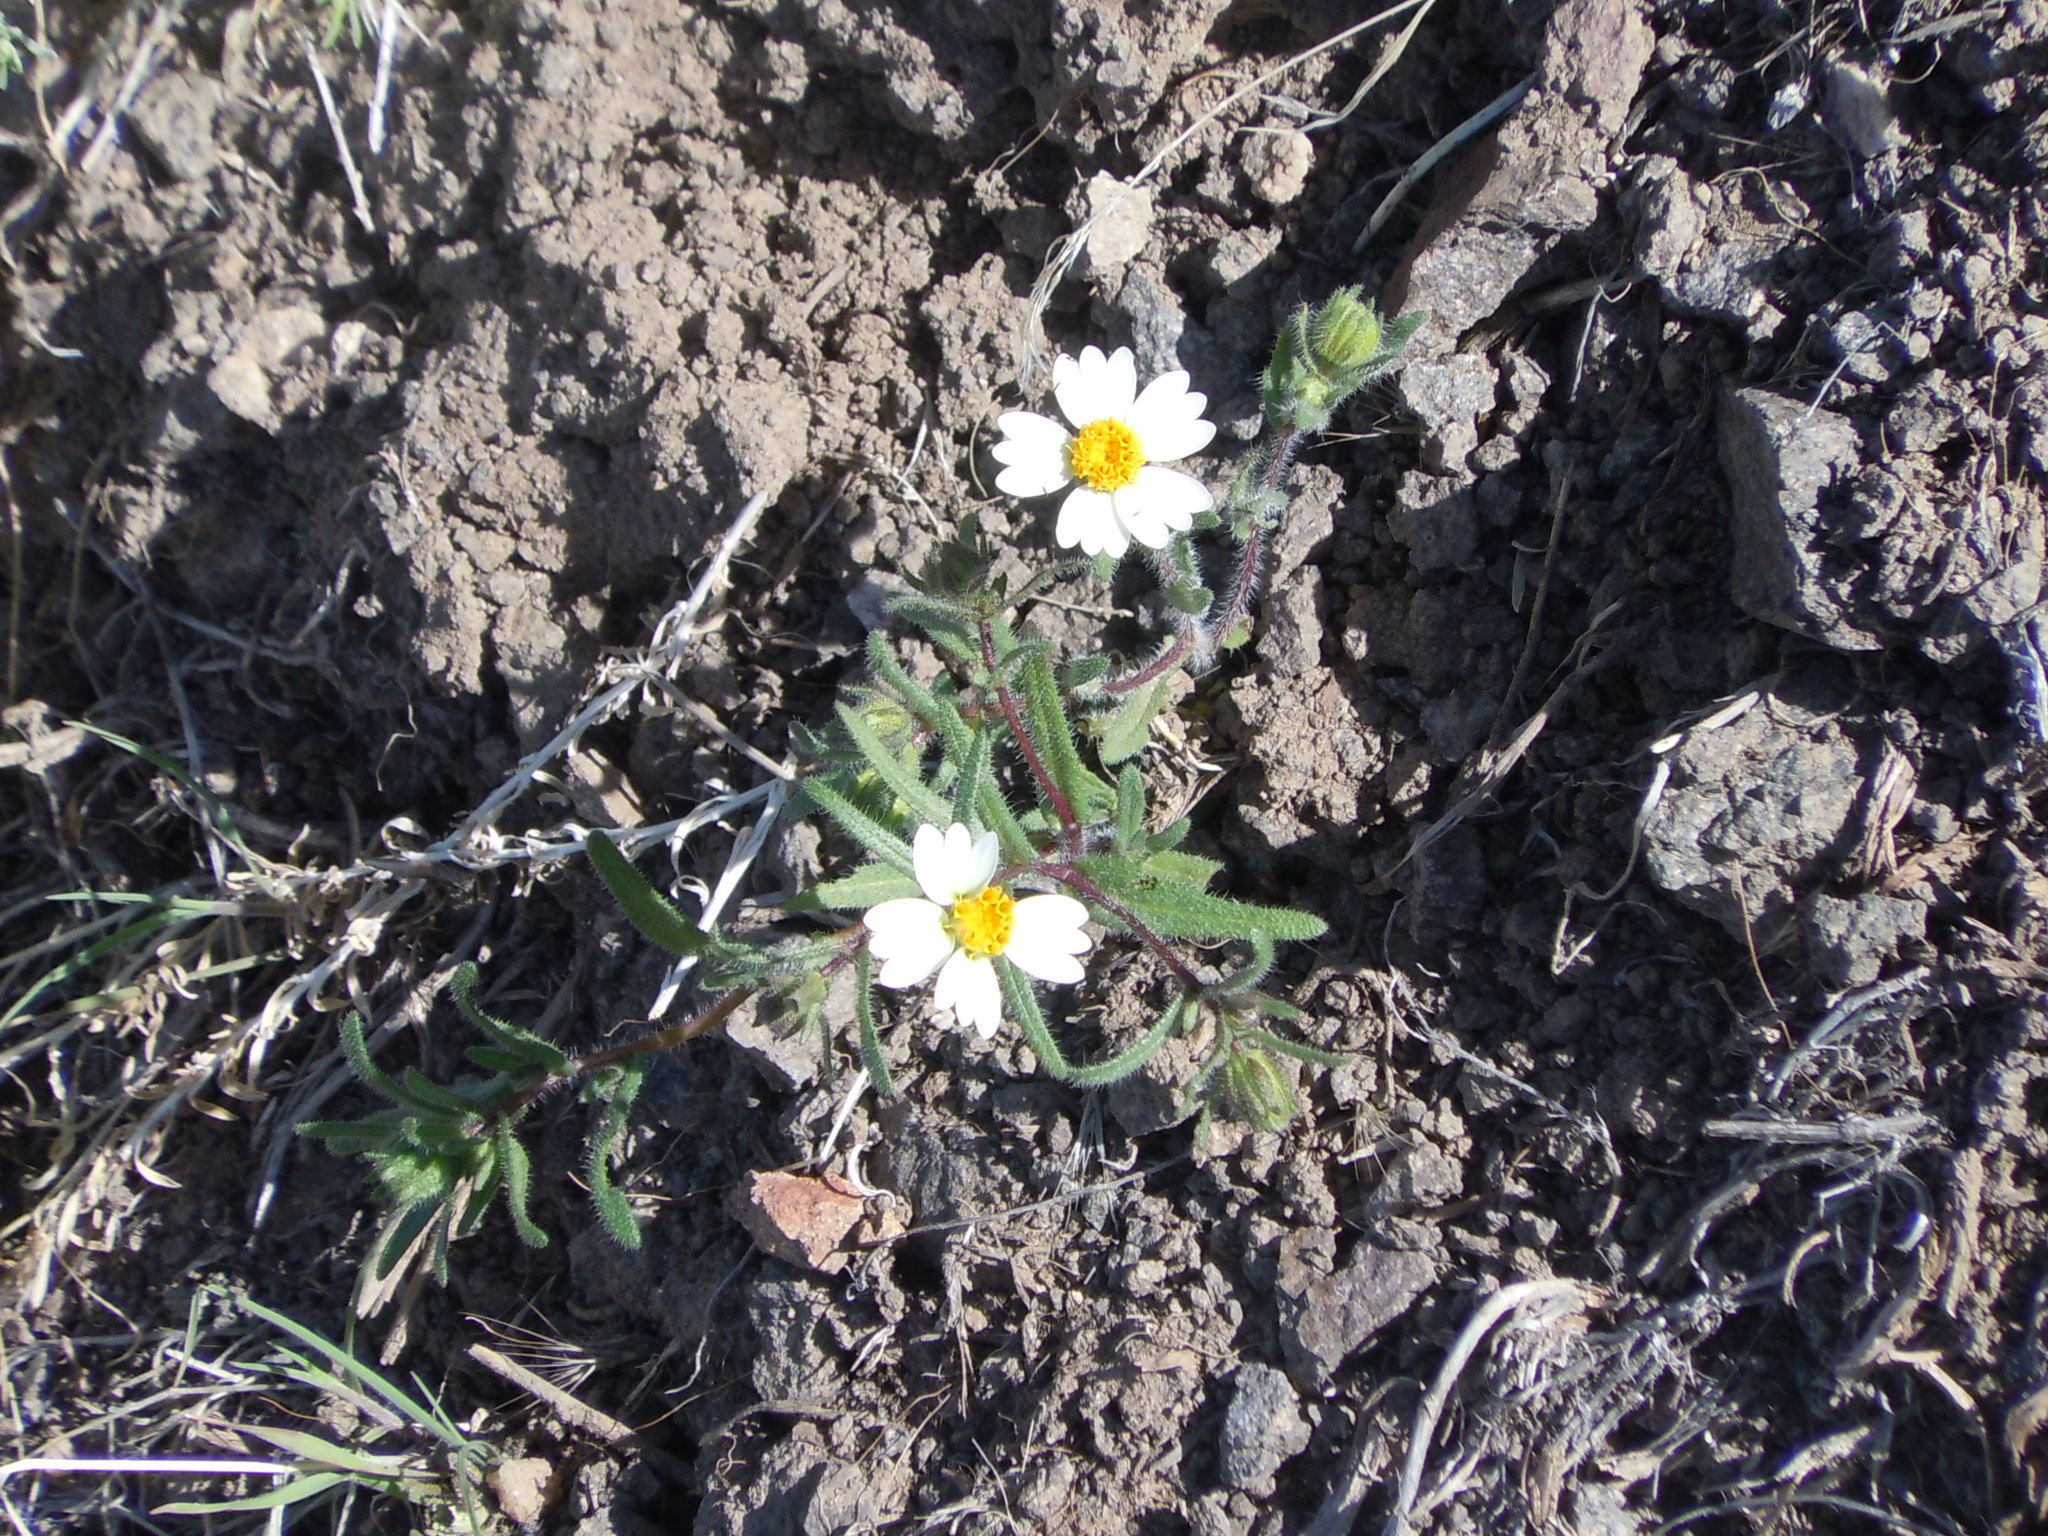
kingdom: Plantae
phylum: Tracheophyta
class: Magnoliopsida
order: Asterales
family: Asteraceae
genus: Layia
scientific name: Layia glandulosa
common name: White layia
